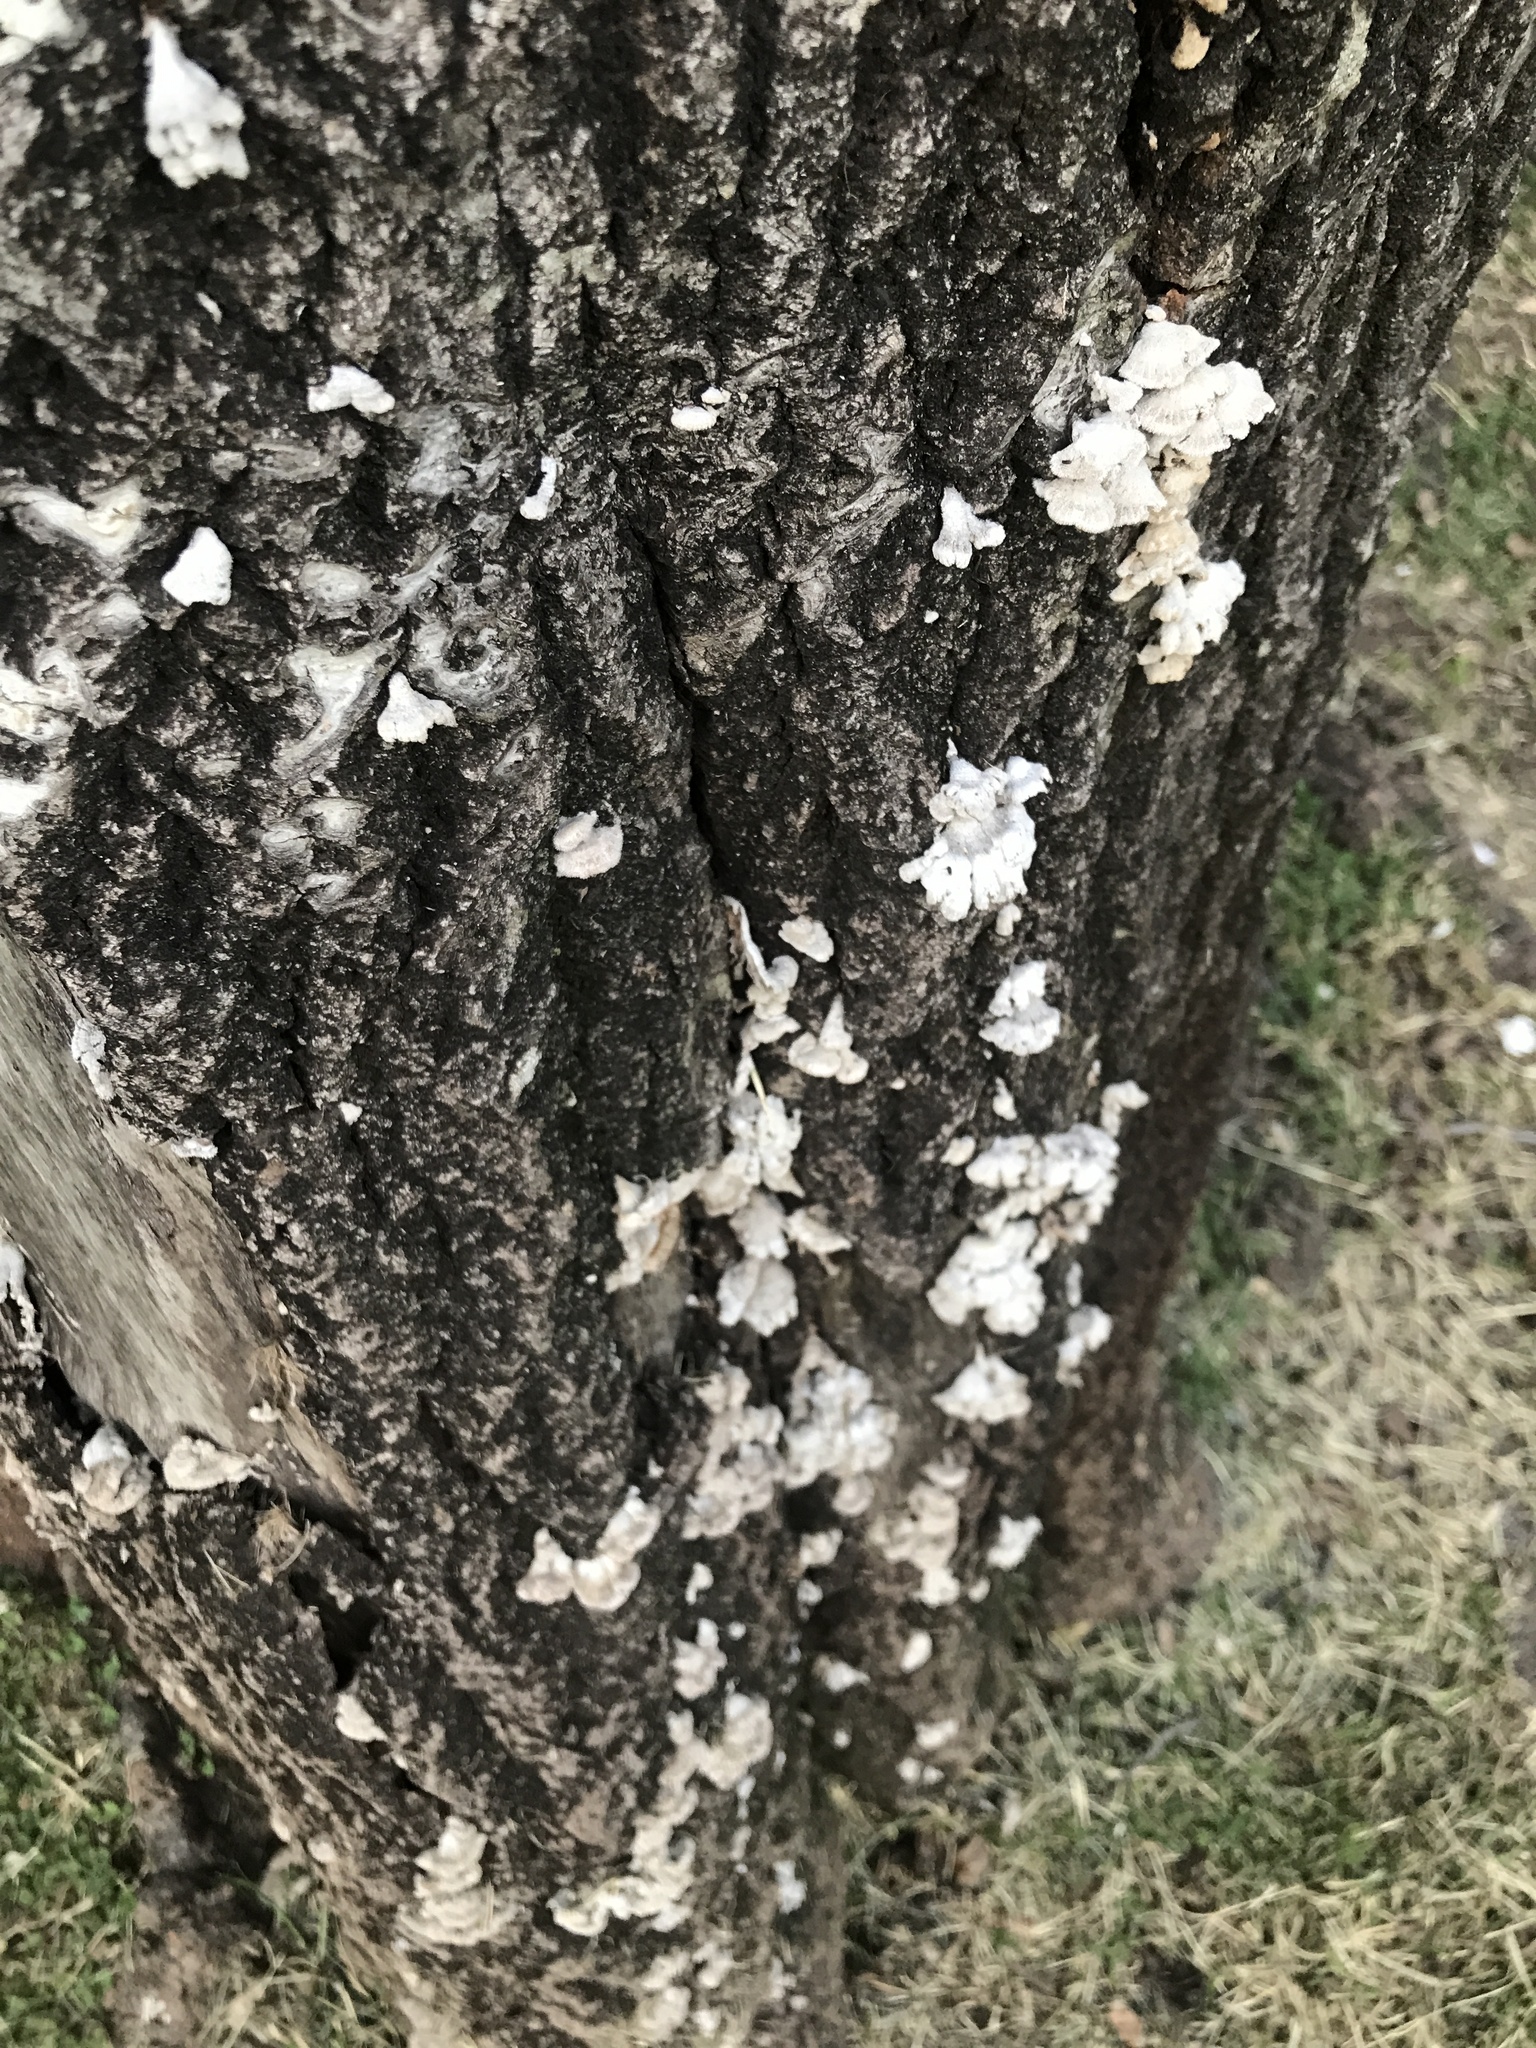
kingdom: Fungi
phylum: Basidiomycota
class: Agaricomycetes
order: Agaricales
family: Schizophyllaceae
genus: Schizophyllum
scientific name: Schizophyllum commune
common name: Common porecrust
